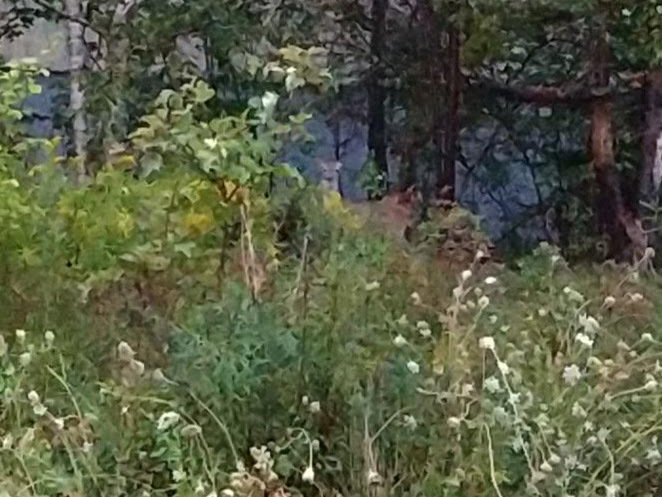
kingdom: Animalia
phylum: Chordata
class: Mammalia
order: Artiodactyla
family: Cervidae
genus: Odocoileus
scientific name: Odocoileus virginianus
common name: White-tailed deer
